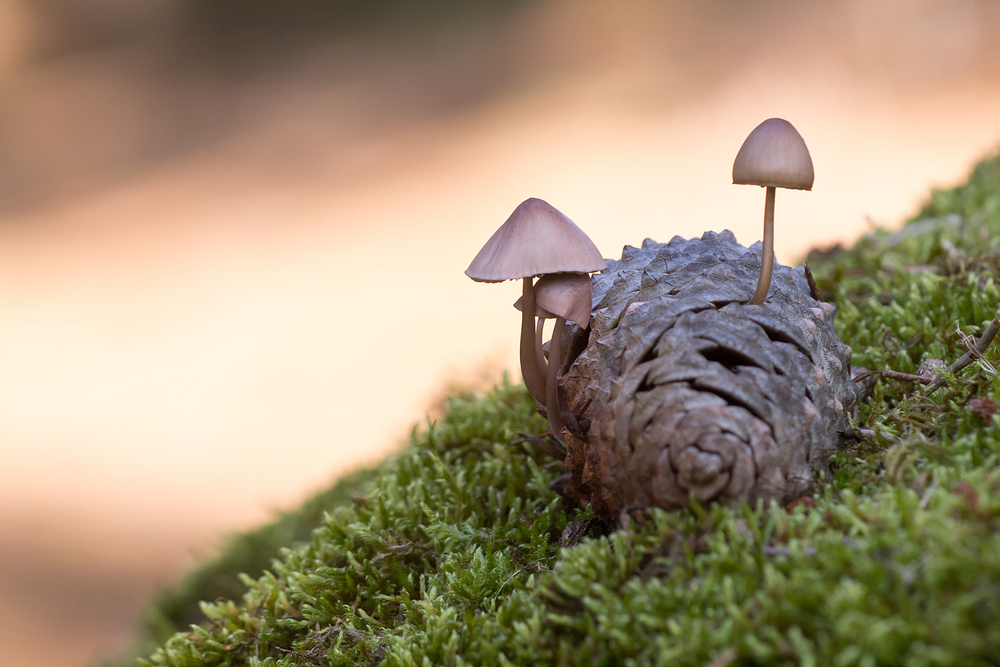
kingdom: Fungi
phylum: Basidiomycota
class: Agaricomycetes
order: Agaricales
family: Mycenaceae
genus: Mycena
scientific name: Mycena seynii
